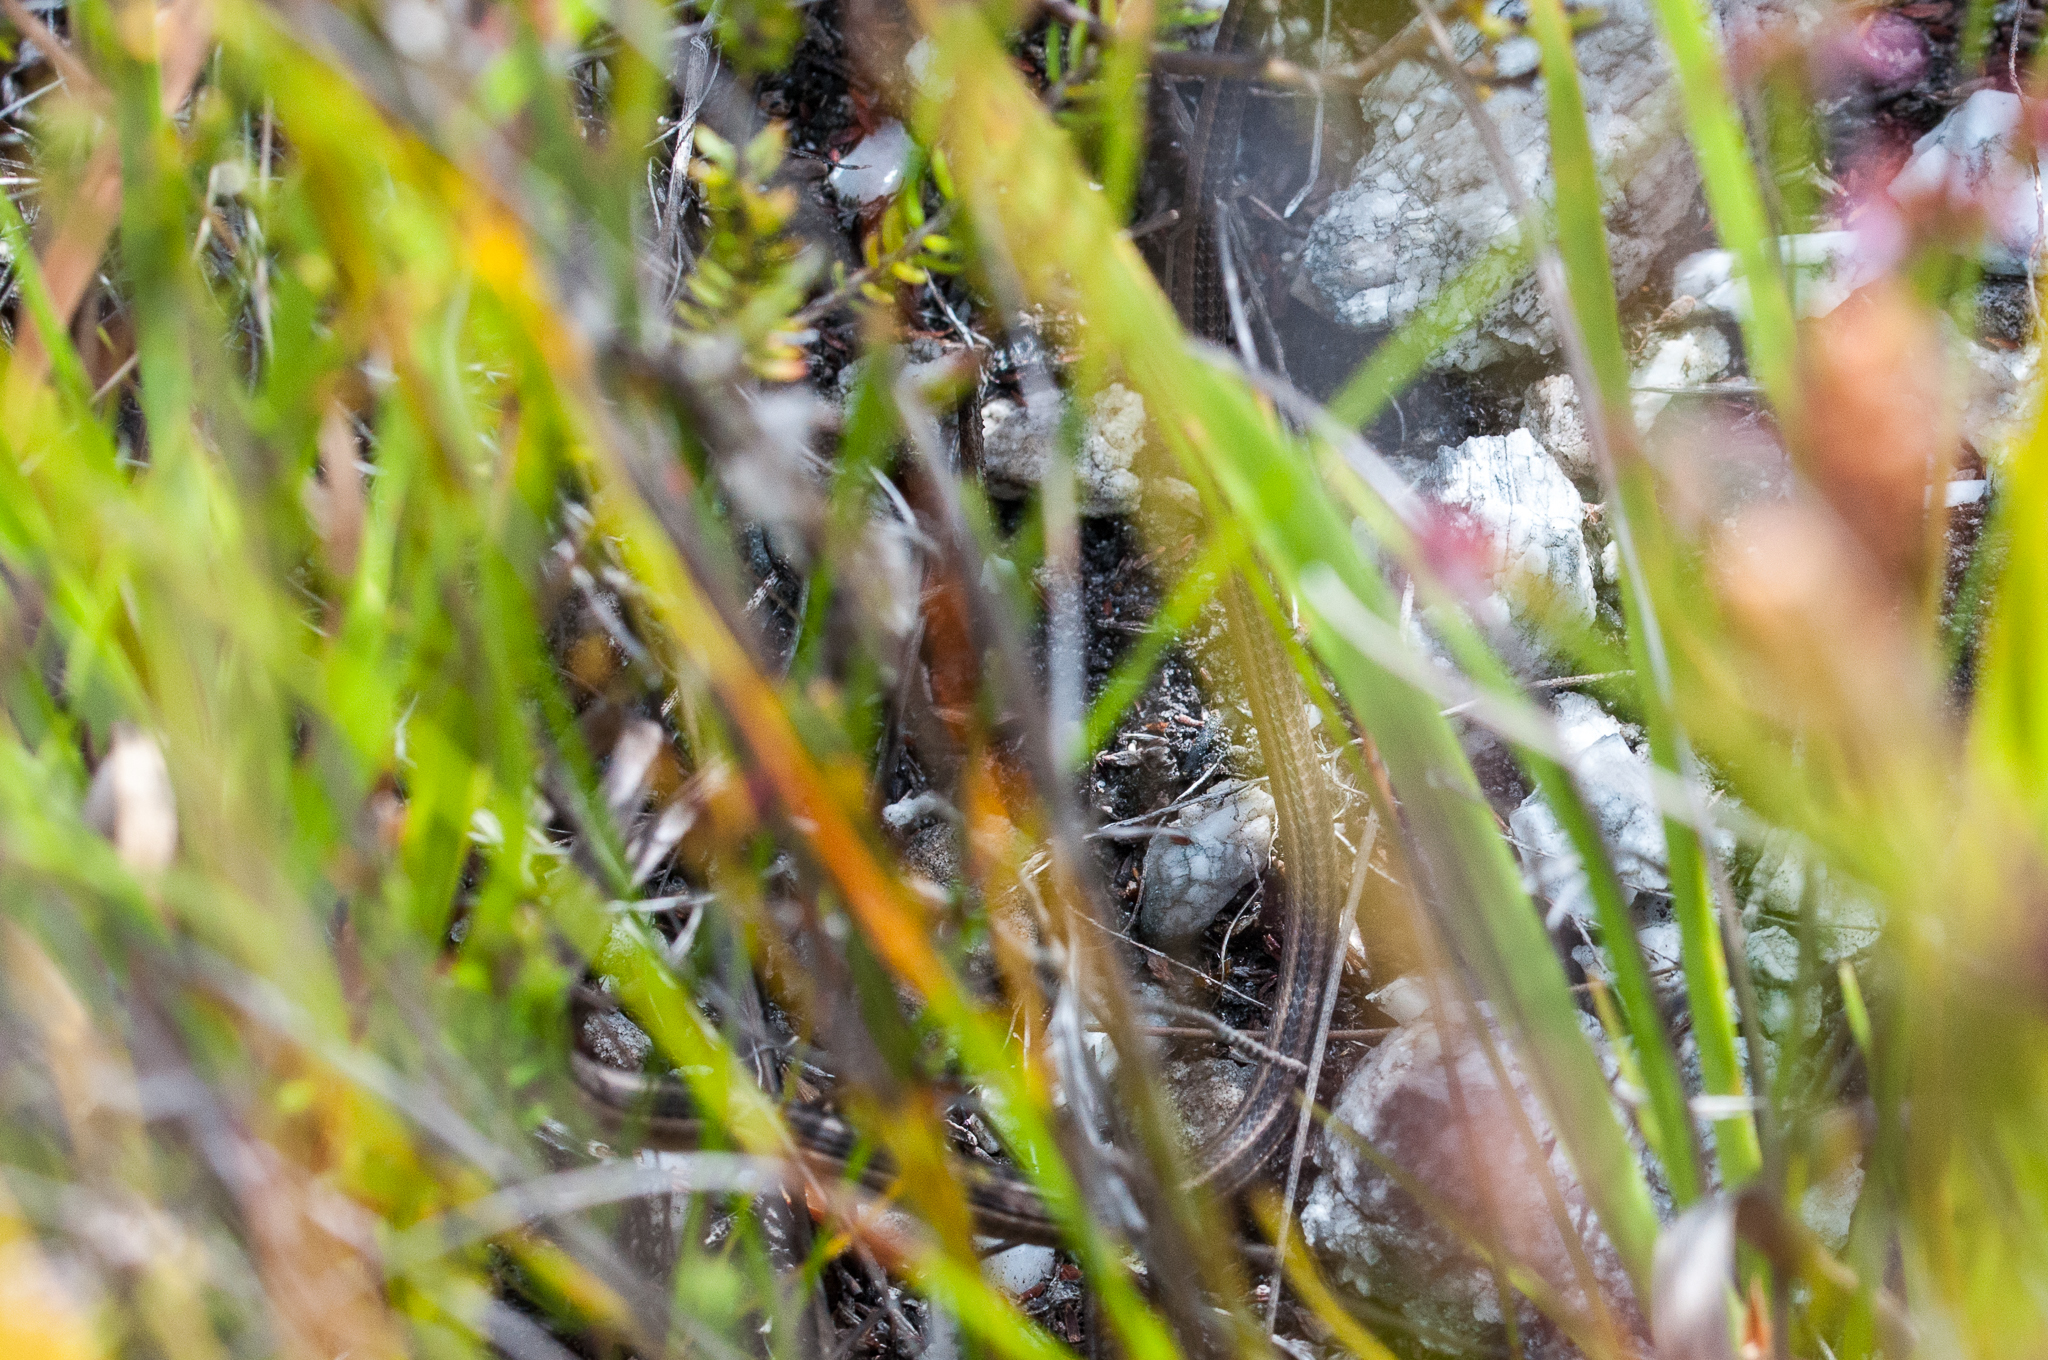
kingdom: Animalia
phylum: Chordata
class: Squamata
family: Cordylidae
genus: Chamaesaura
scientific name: Chamaesaura anguina
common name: Cape snake lizard
